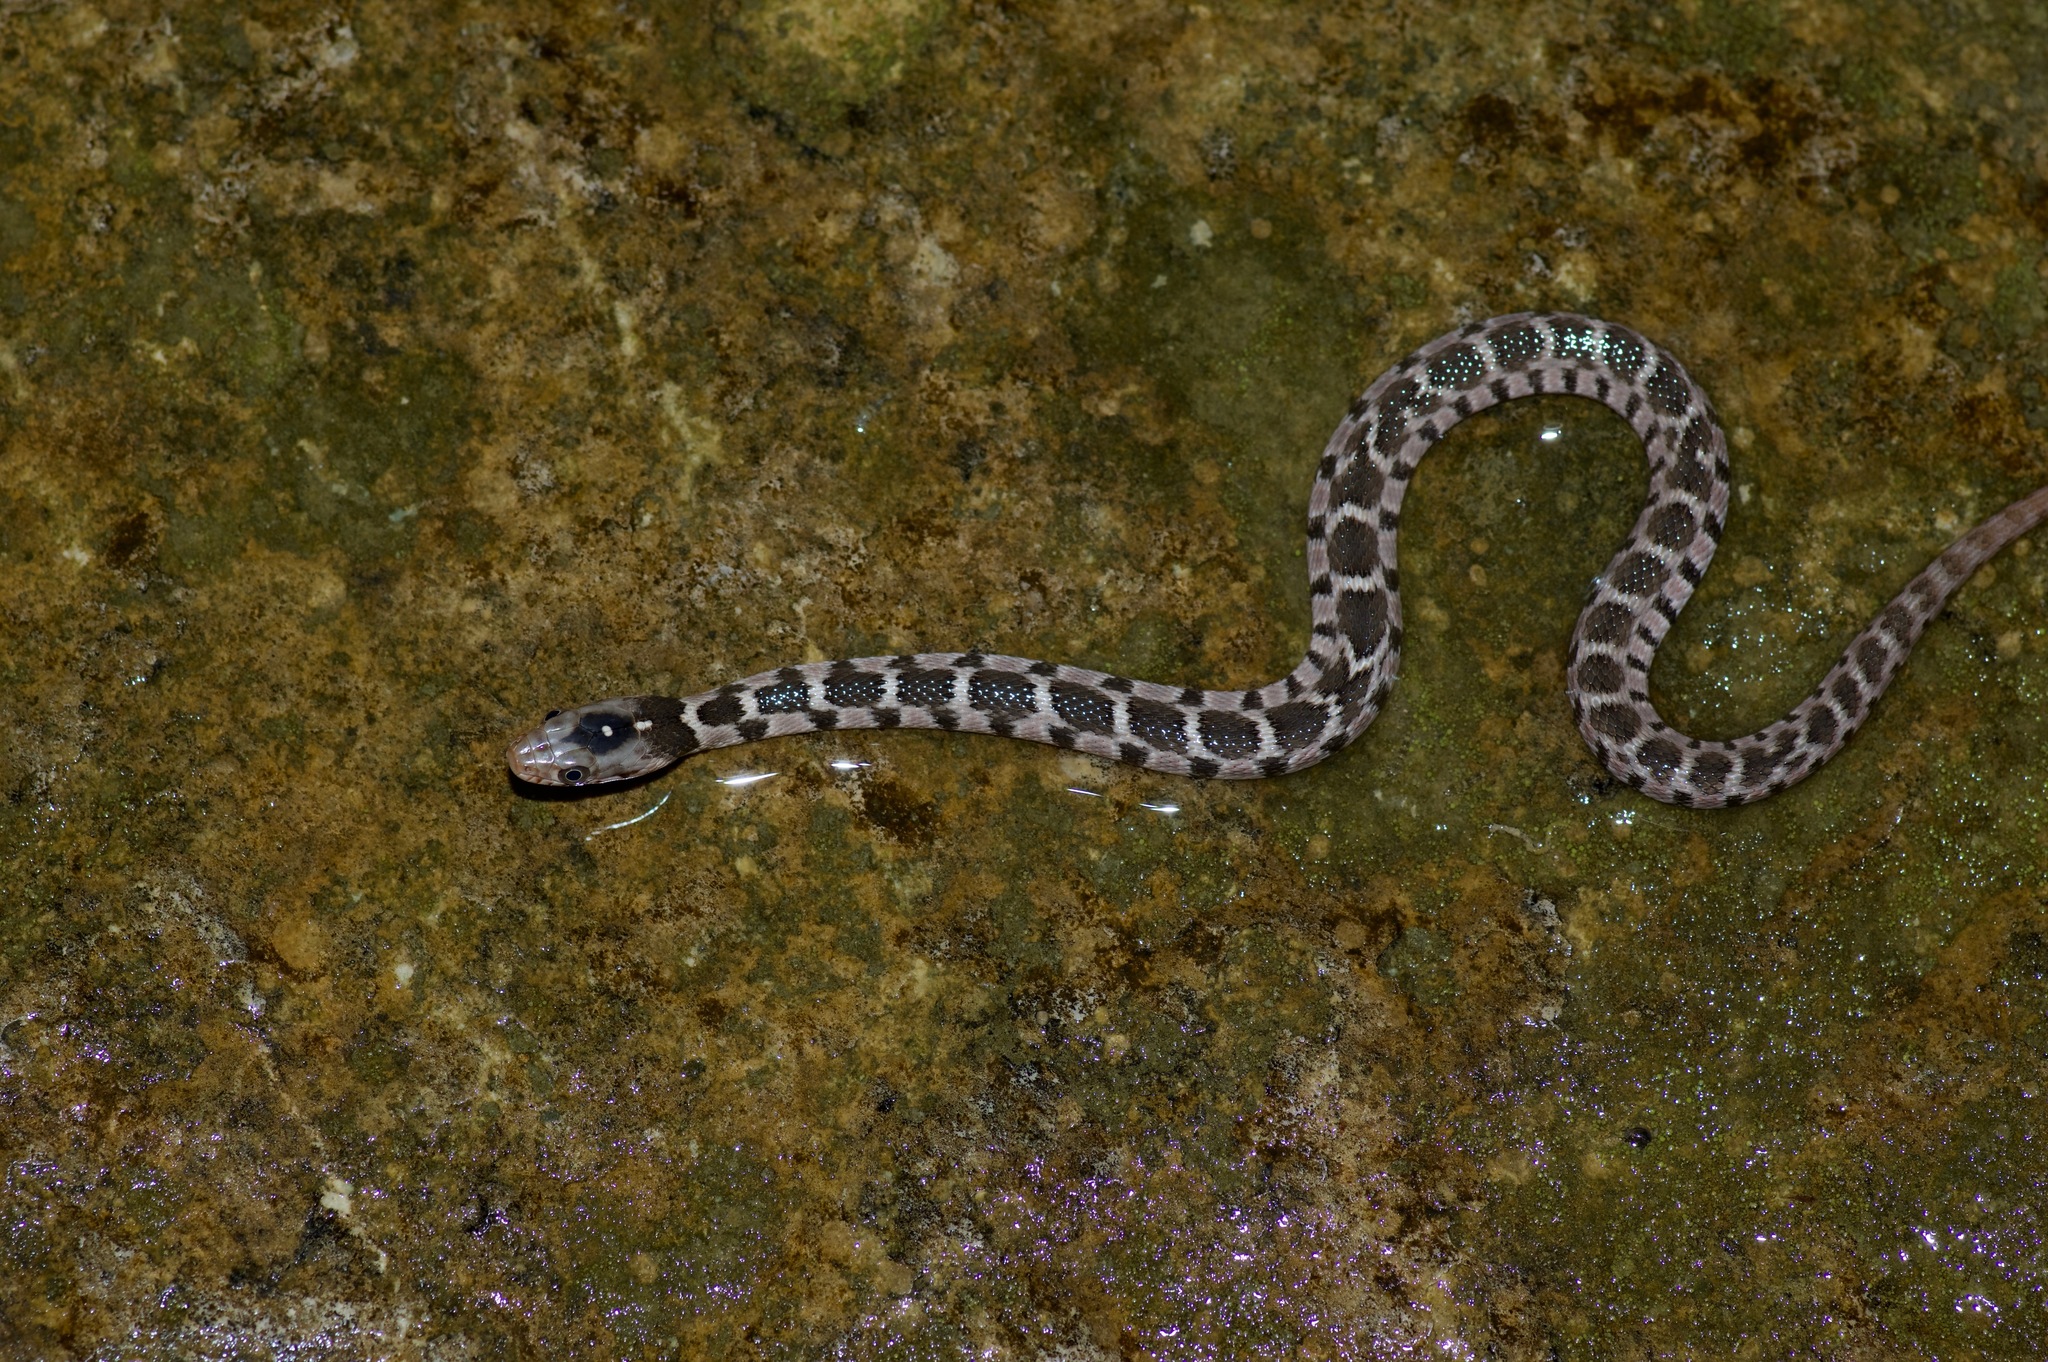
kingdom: Animalia
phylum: Chordata
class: Squamata
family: Colubridae
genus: Nerodia
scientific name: Nerodia erythrogaster
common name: Plainbelly water snake
